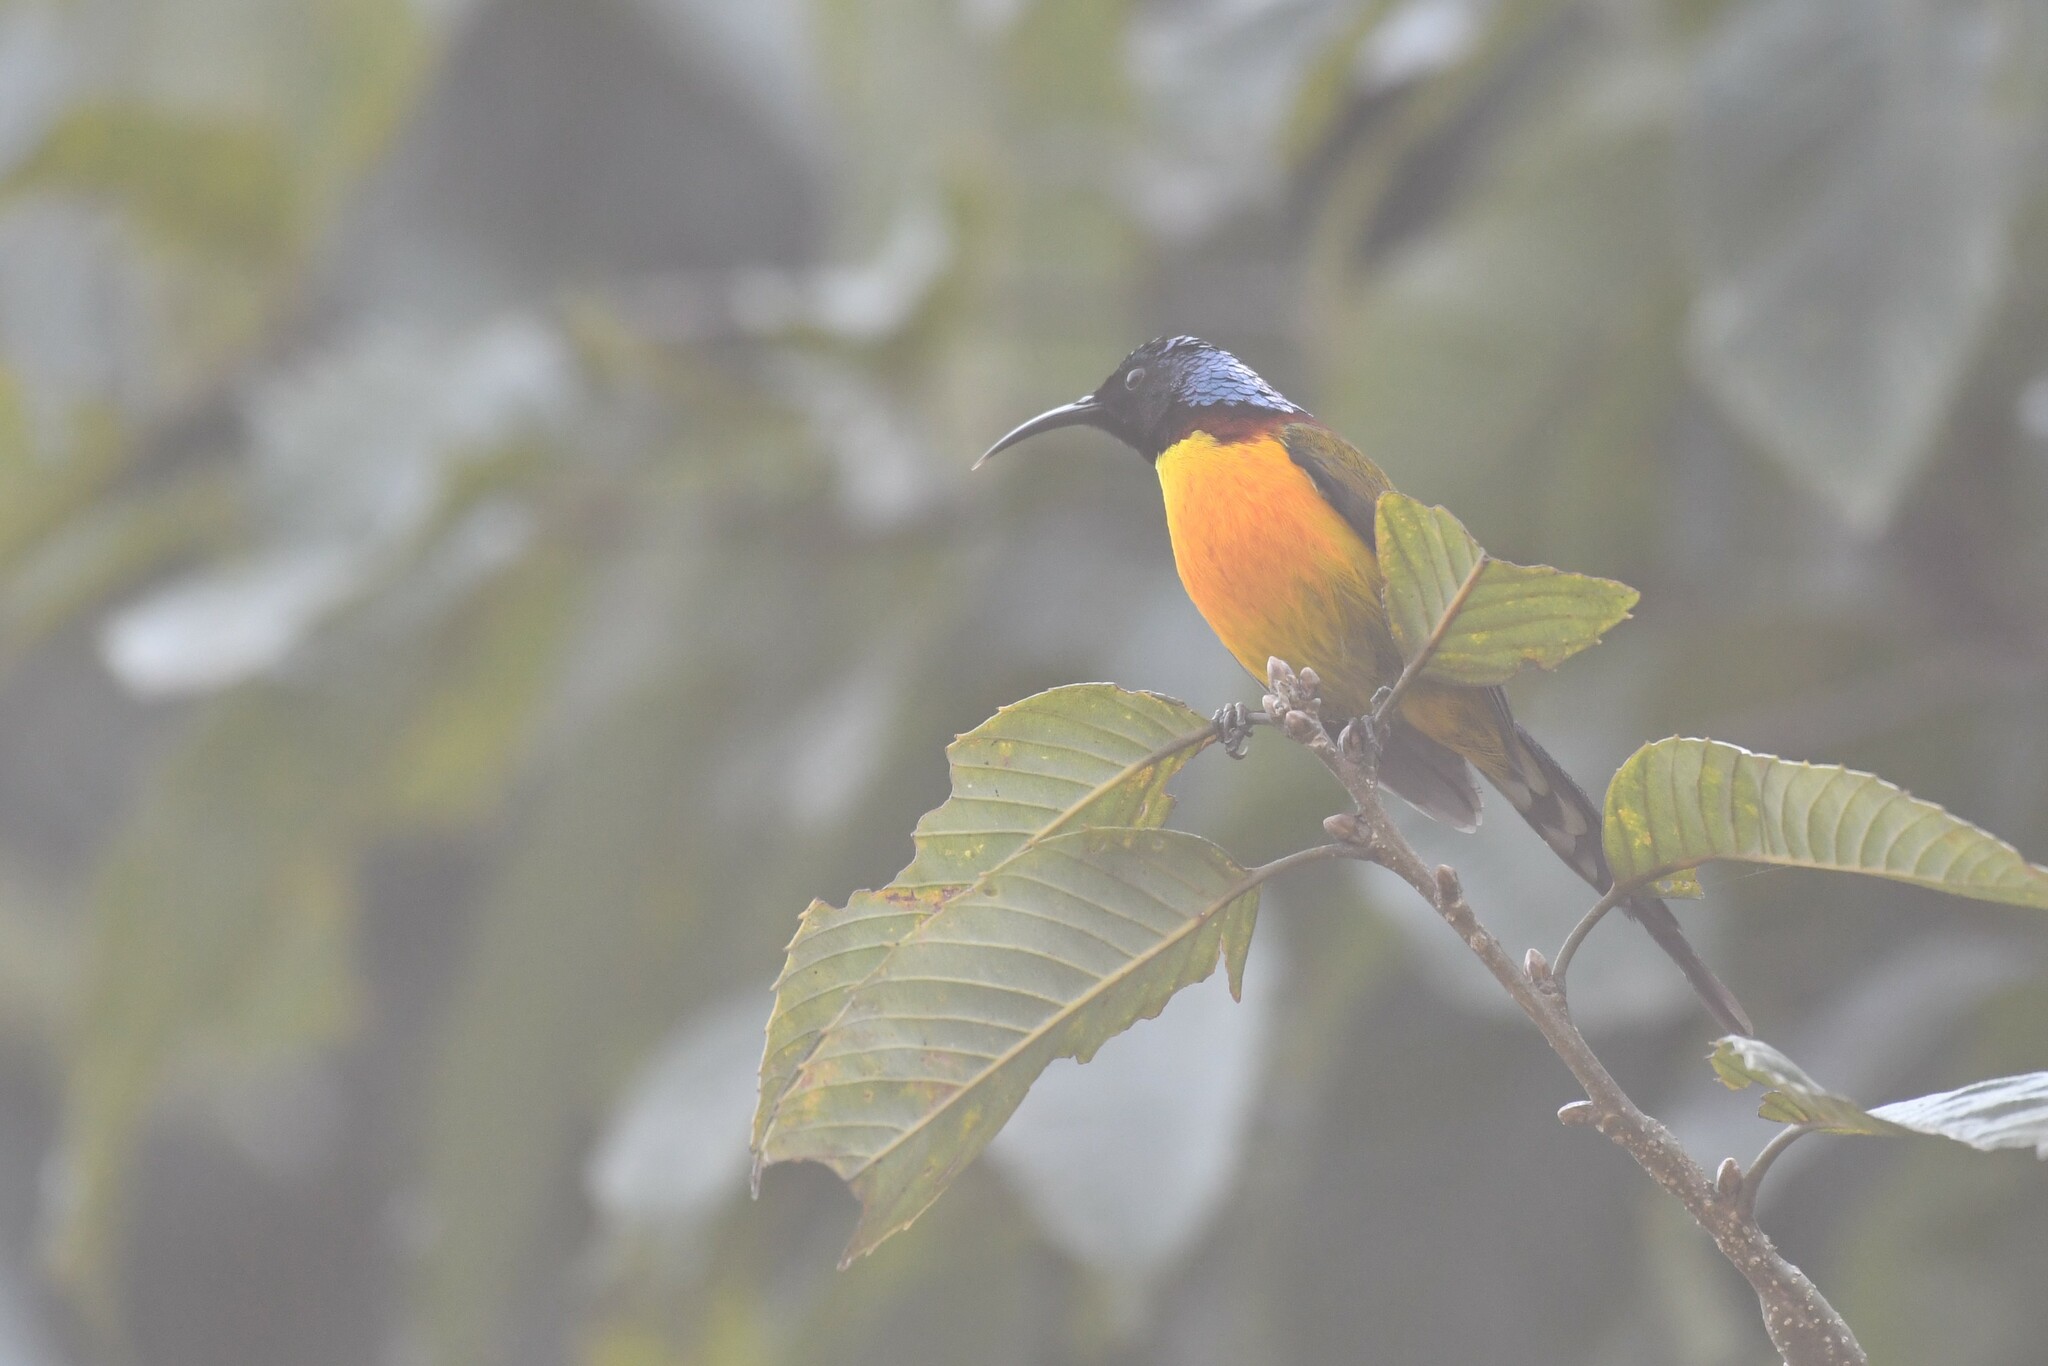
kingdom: Animalia
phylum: Chordata
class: Aves
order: Passeriformes
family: Nectariniidae
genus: Aethopyga
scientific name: Aethopyga nipalensis
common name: Green-tailed sunbird
